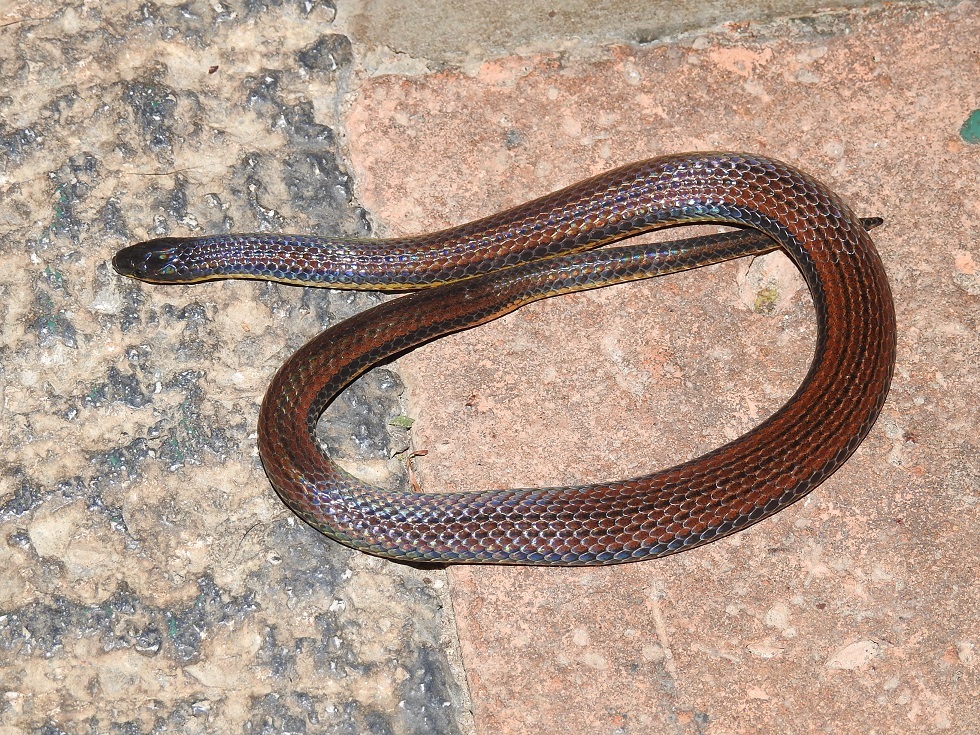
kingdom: Animalia
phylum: Chordata
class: Squamata
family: Colubridae
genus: Adelphicos
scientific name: Adelphicos nigrilatum
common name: Burrowing snake
